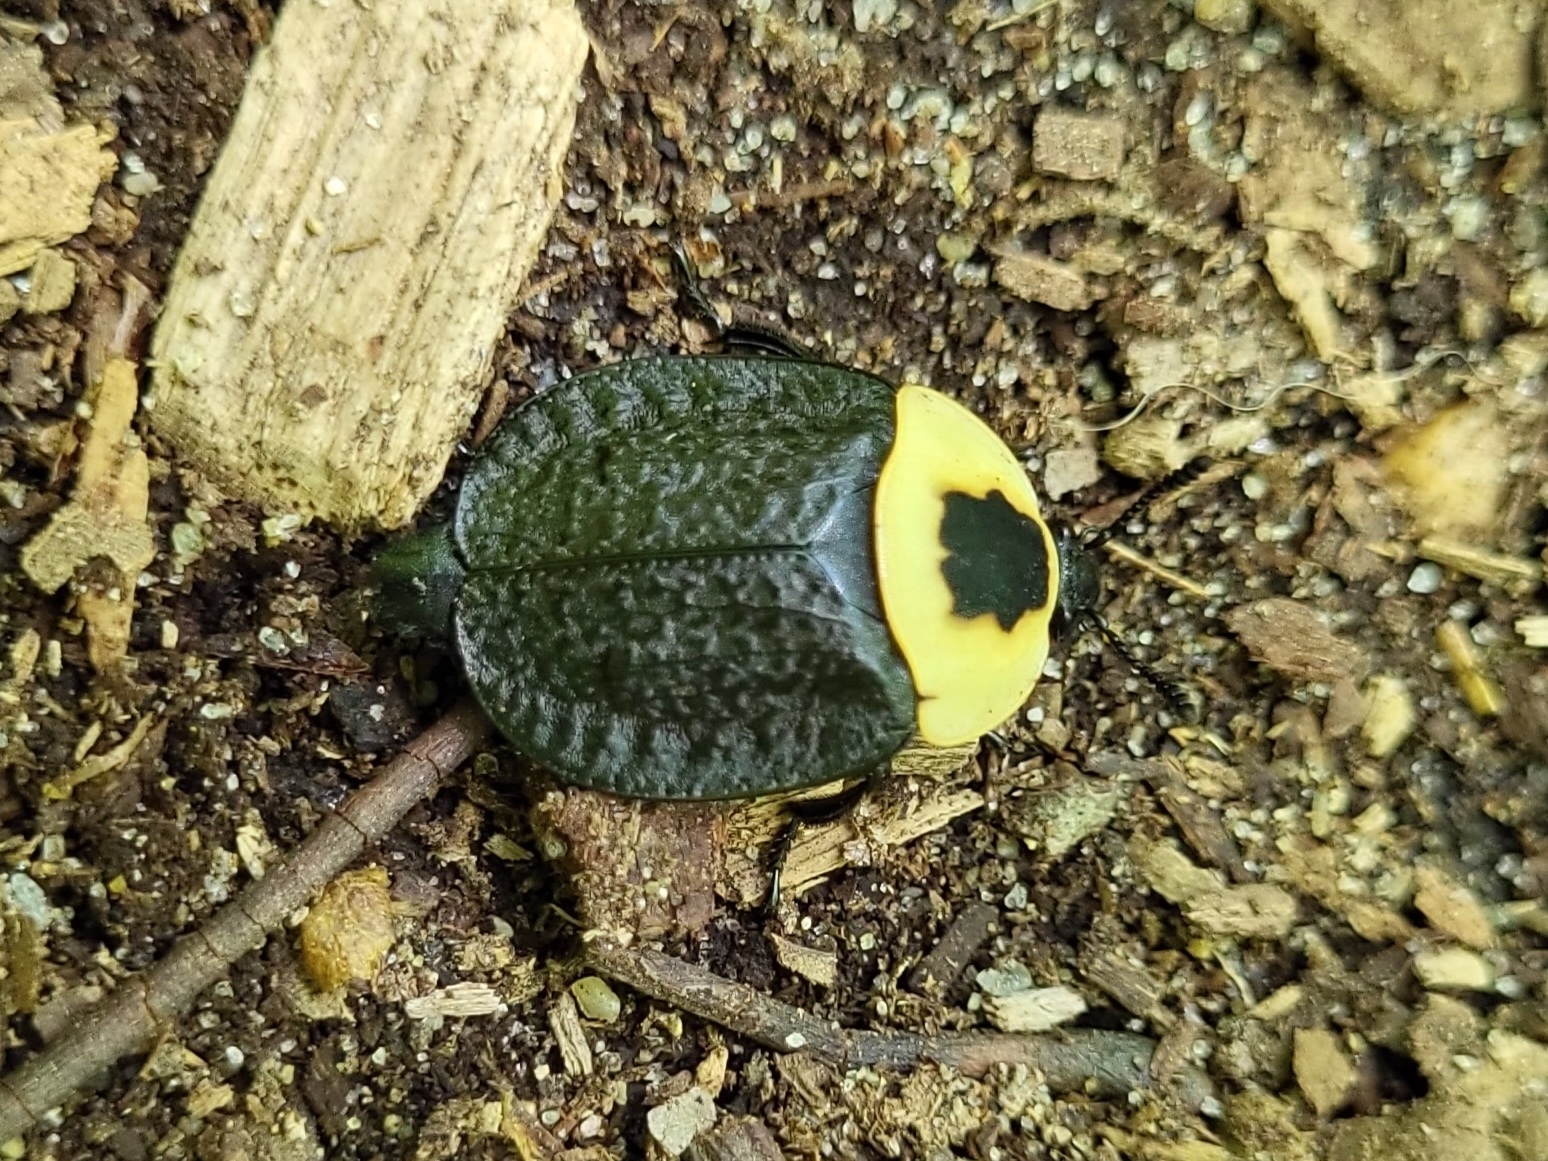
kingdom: Animalia
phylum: Arthropoda
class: Insecta
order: Coleoptera
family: Staphylinidae
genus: Necrophila
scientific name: Necrophila americana
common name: American carrion beetle
